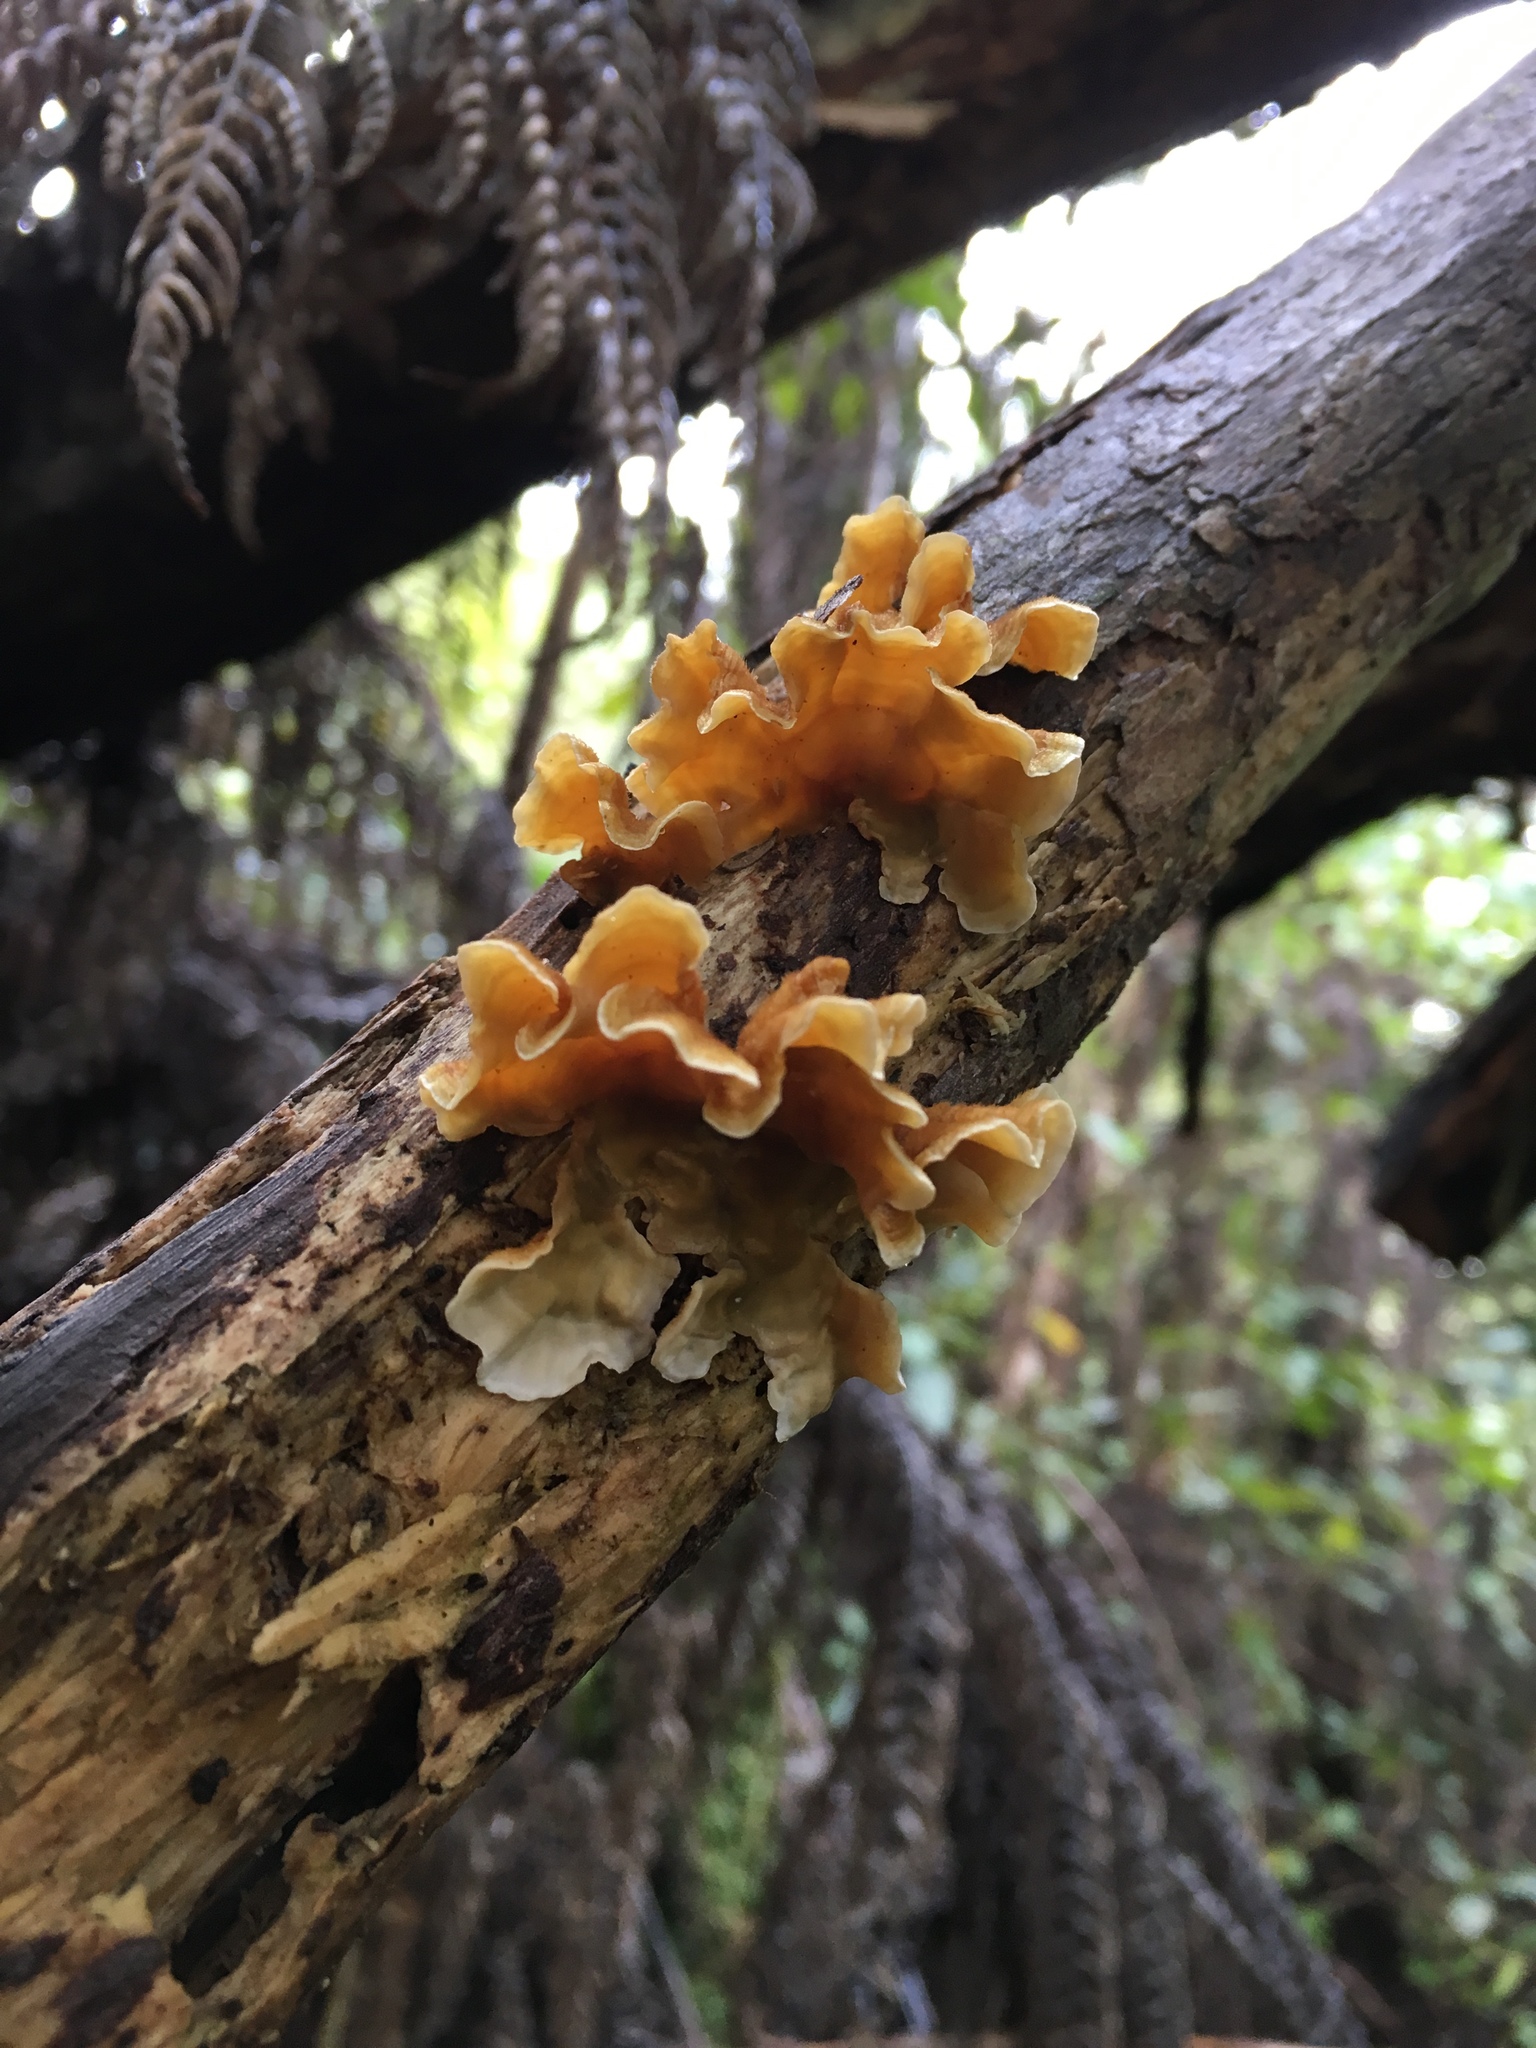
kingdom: Fungi
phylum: Basidiomycota
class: Agaricomycetes
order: Russulales
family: Stereaceae
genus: Stereum
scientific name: Stereum hirsutum
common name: Hairy curtain crust
